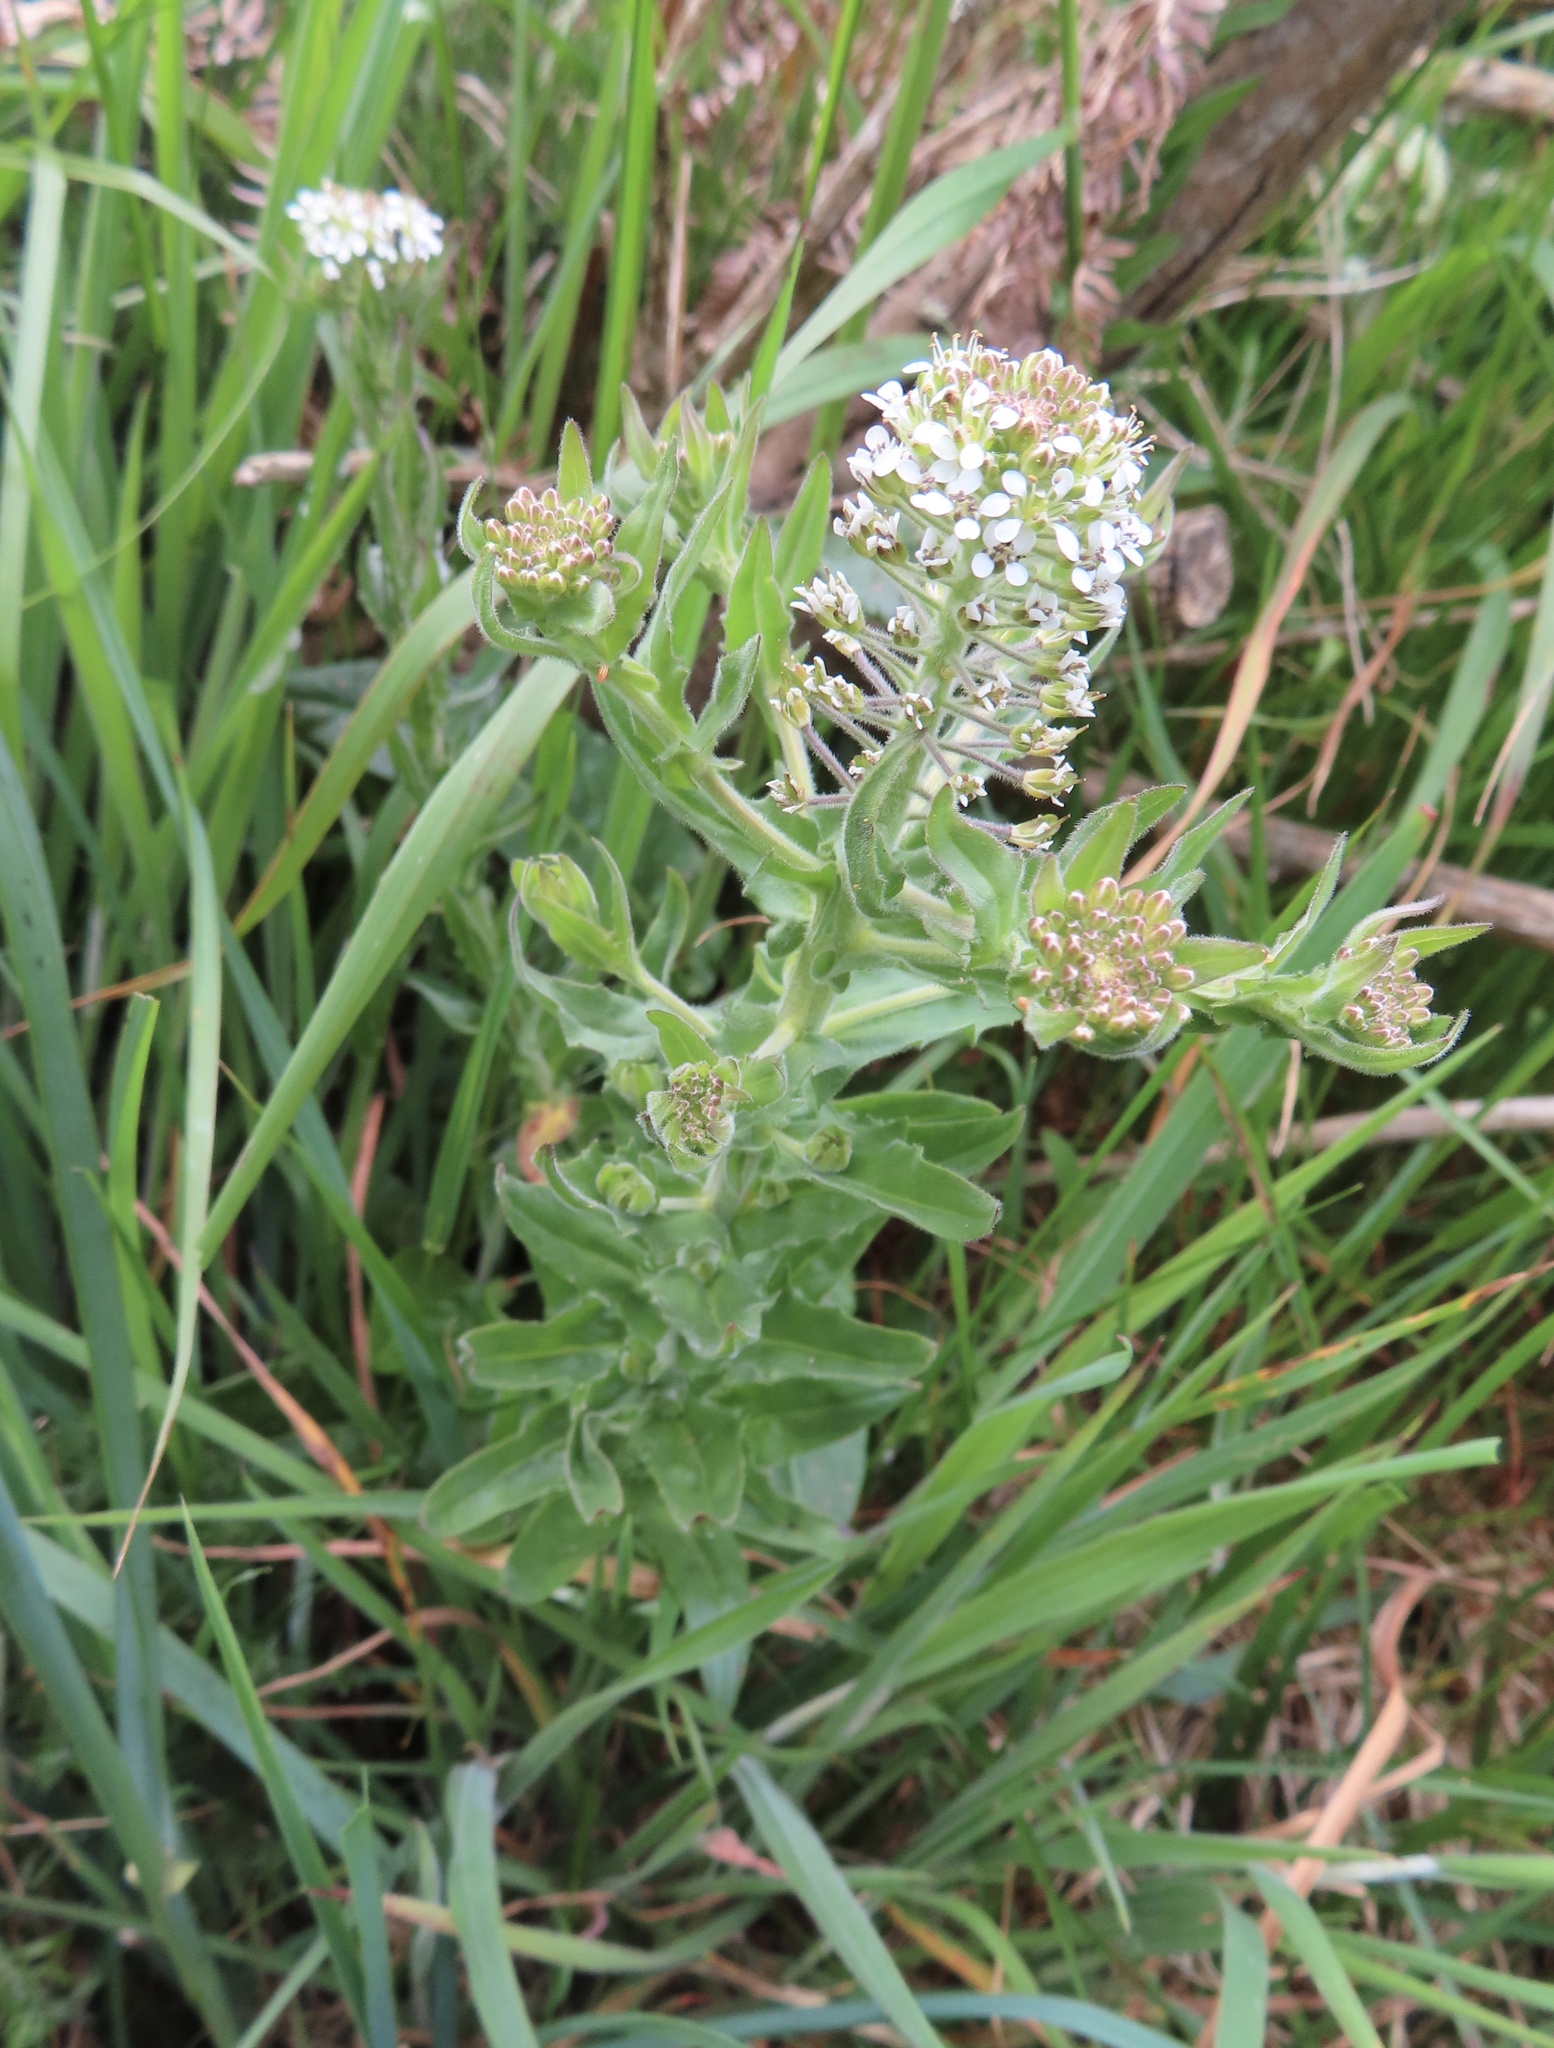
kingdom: Plantae
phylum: Tracheophyta
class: Magnoliopsida
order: Brassicales
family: Brassicaceae
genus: Lepidium
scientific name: Lepidium heterophyllum
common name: Smith's pepperwort
